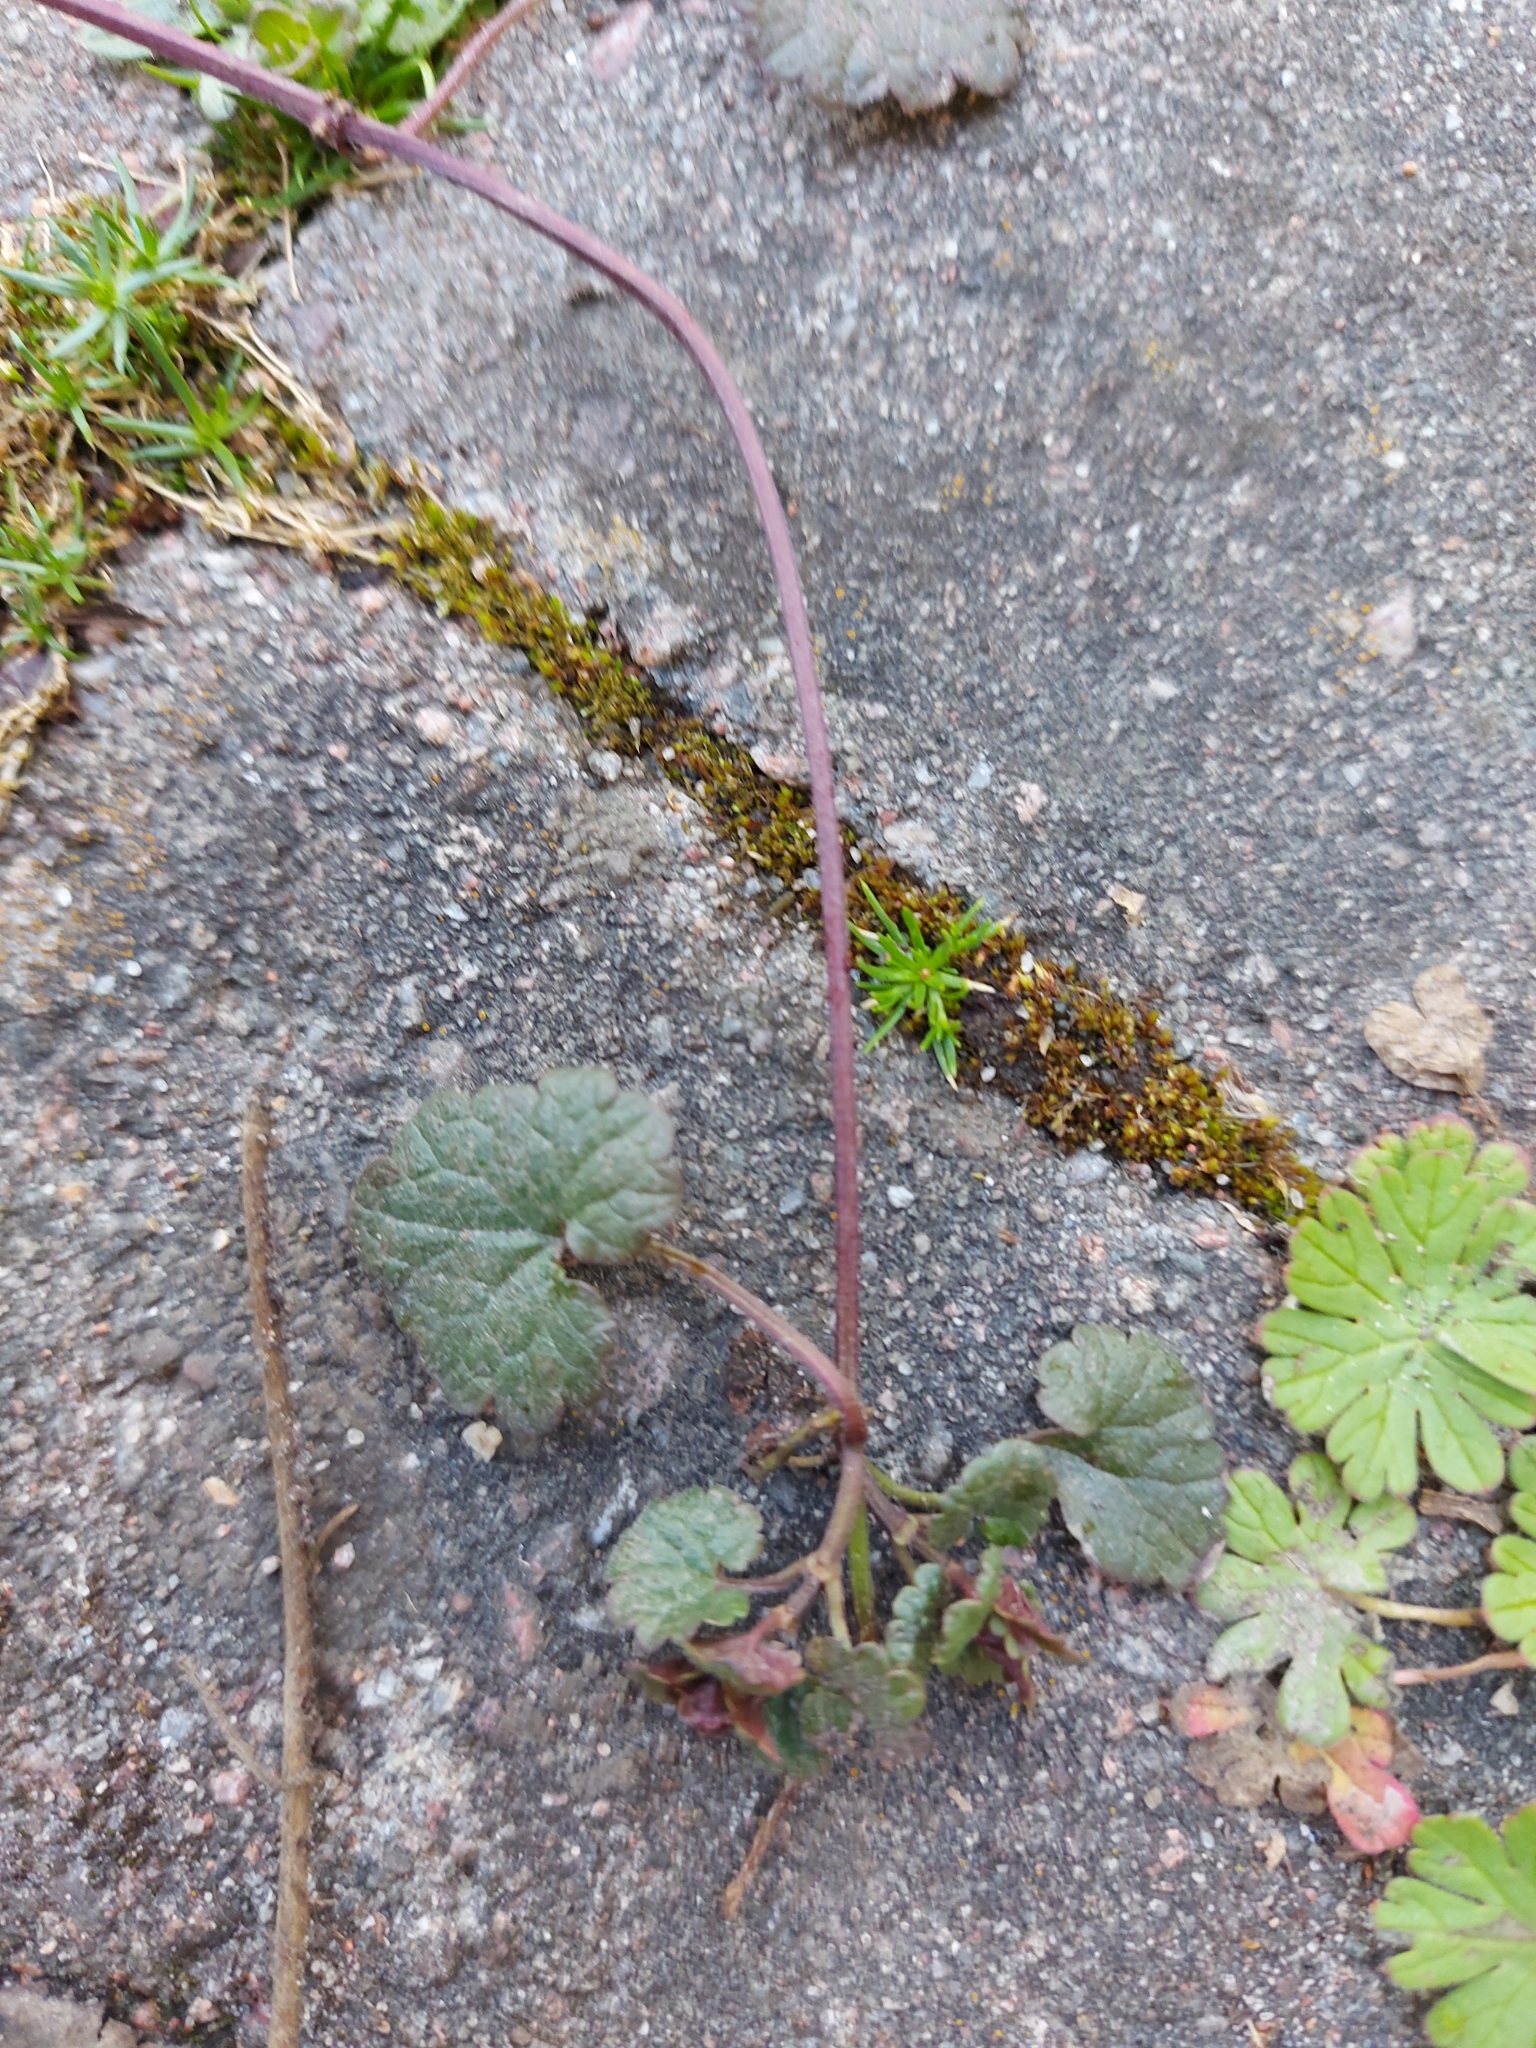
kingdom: Plantae
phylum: Tracheophyta
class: Magnoliopsida
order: Lamiales
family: Lamiaceae
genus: Glechoma
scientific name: Glechoma hederacea
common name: Ground ivy
